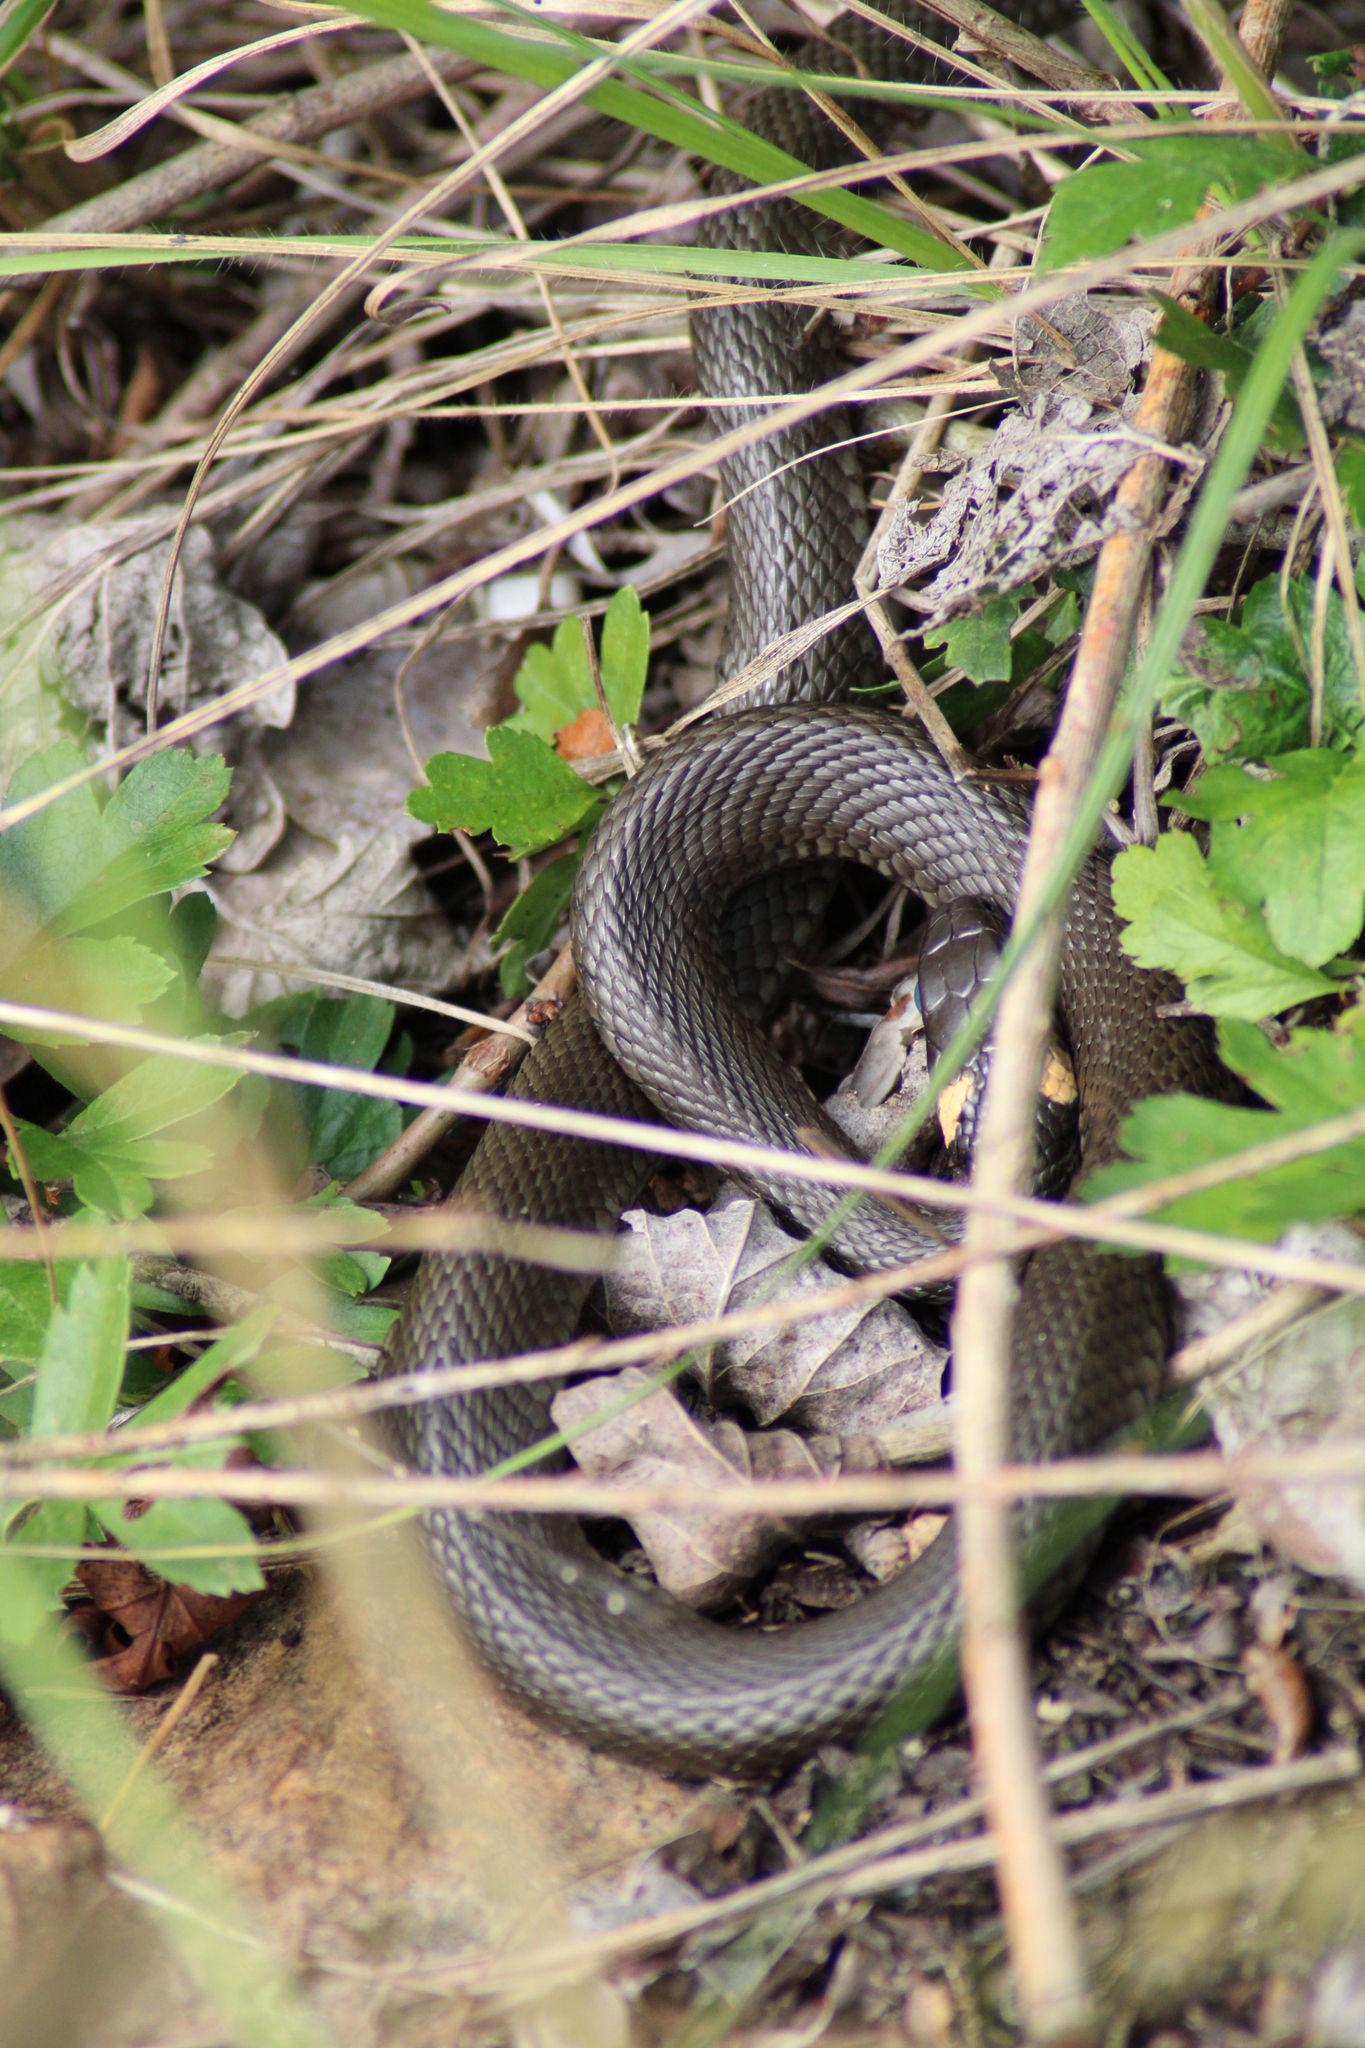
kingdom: Animalia
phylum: Chordata
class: Squamata
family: Colubridae
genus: Natrix
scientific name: Natrix natrix
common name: Grass snake
